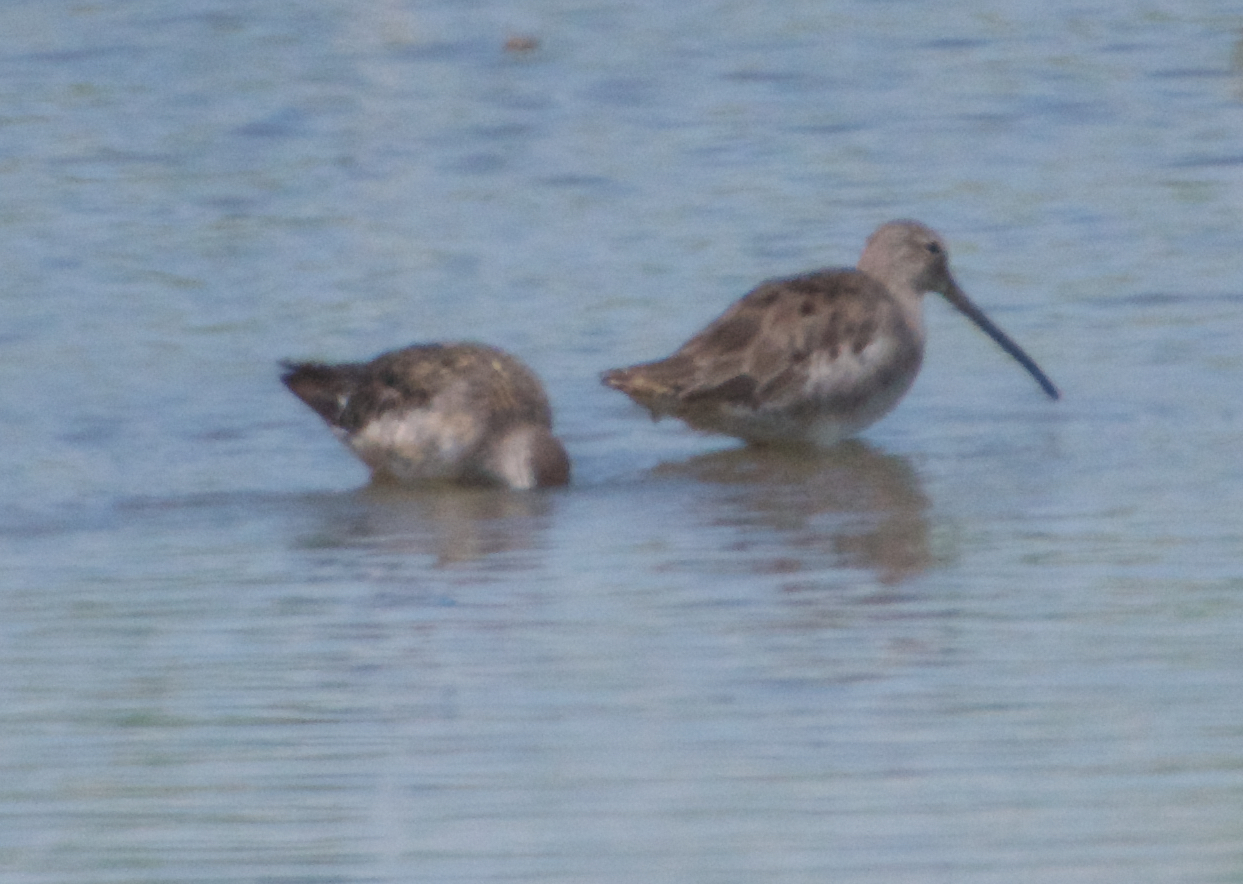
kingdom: Animalia
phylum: Chordata
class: Aves
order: Charadriiformes
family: Scolopacidae
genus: Limnodromus
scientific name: Limnodromus scolopaceus
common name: Long-billed dowitcher
